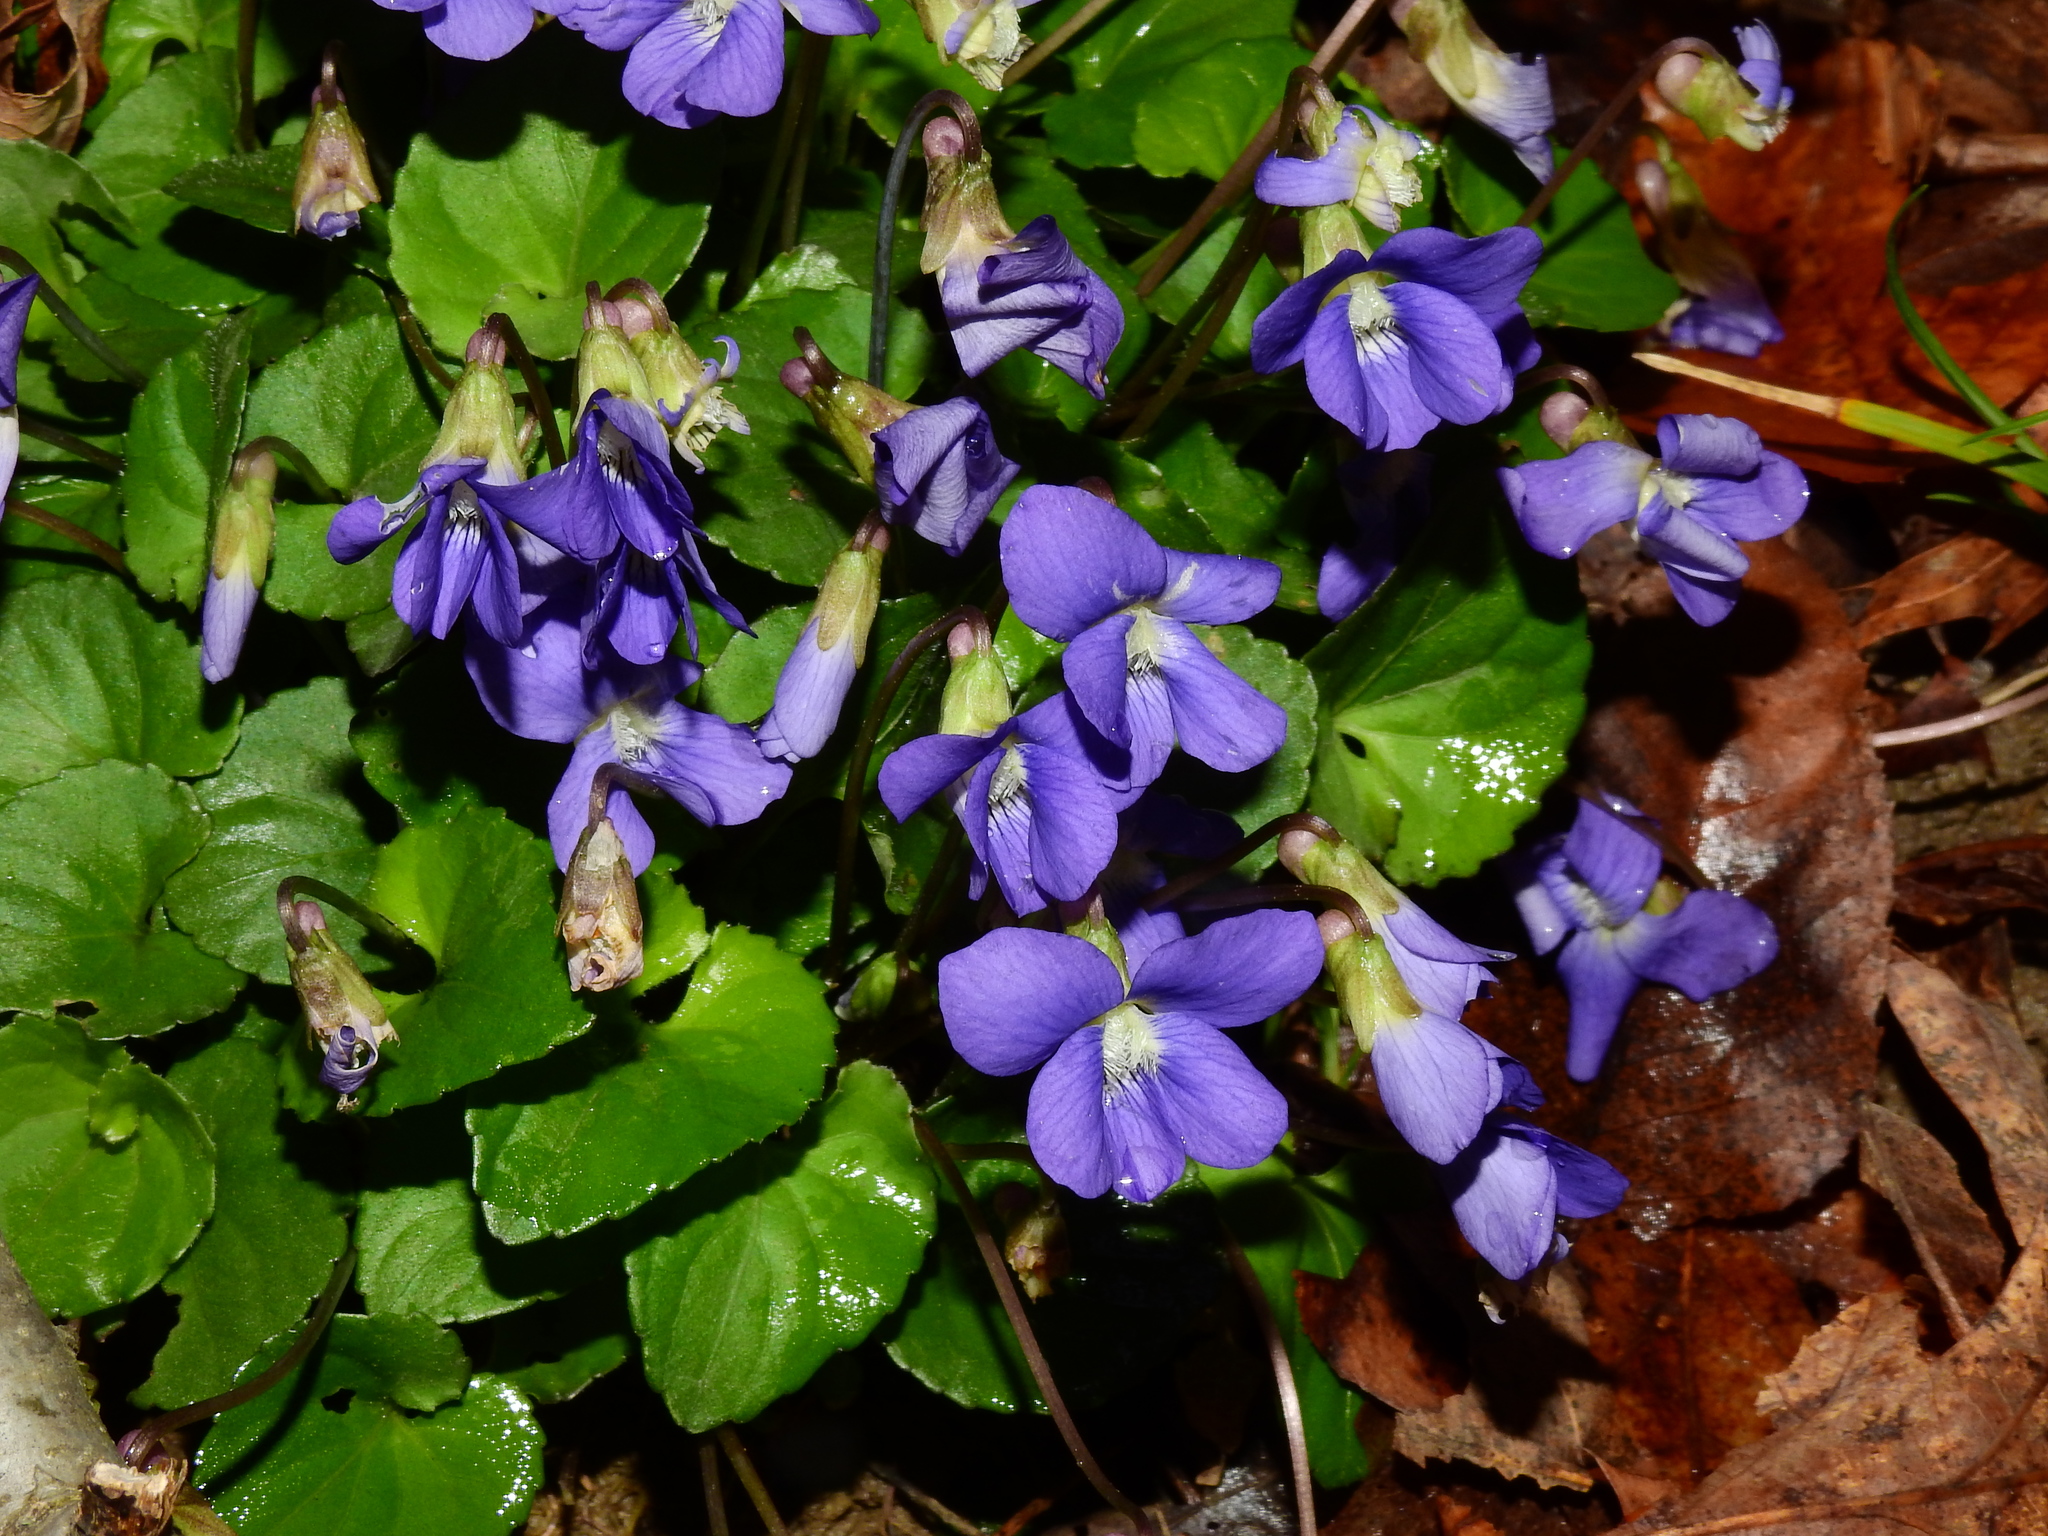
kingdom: Plantae
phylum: Tracheophyta
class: Magnoliopsida
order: Malpighiales
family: Violaceae
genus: Viola
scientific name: Viola sororia
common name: Dooryard violet
